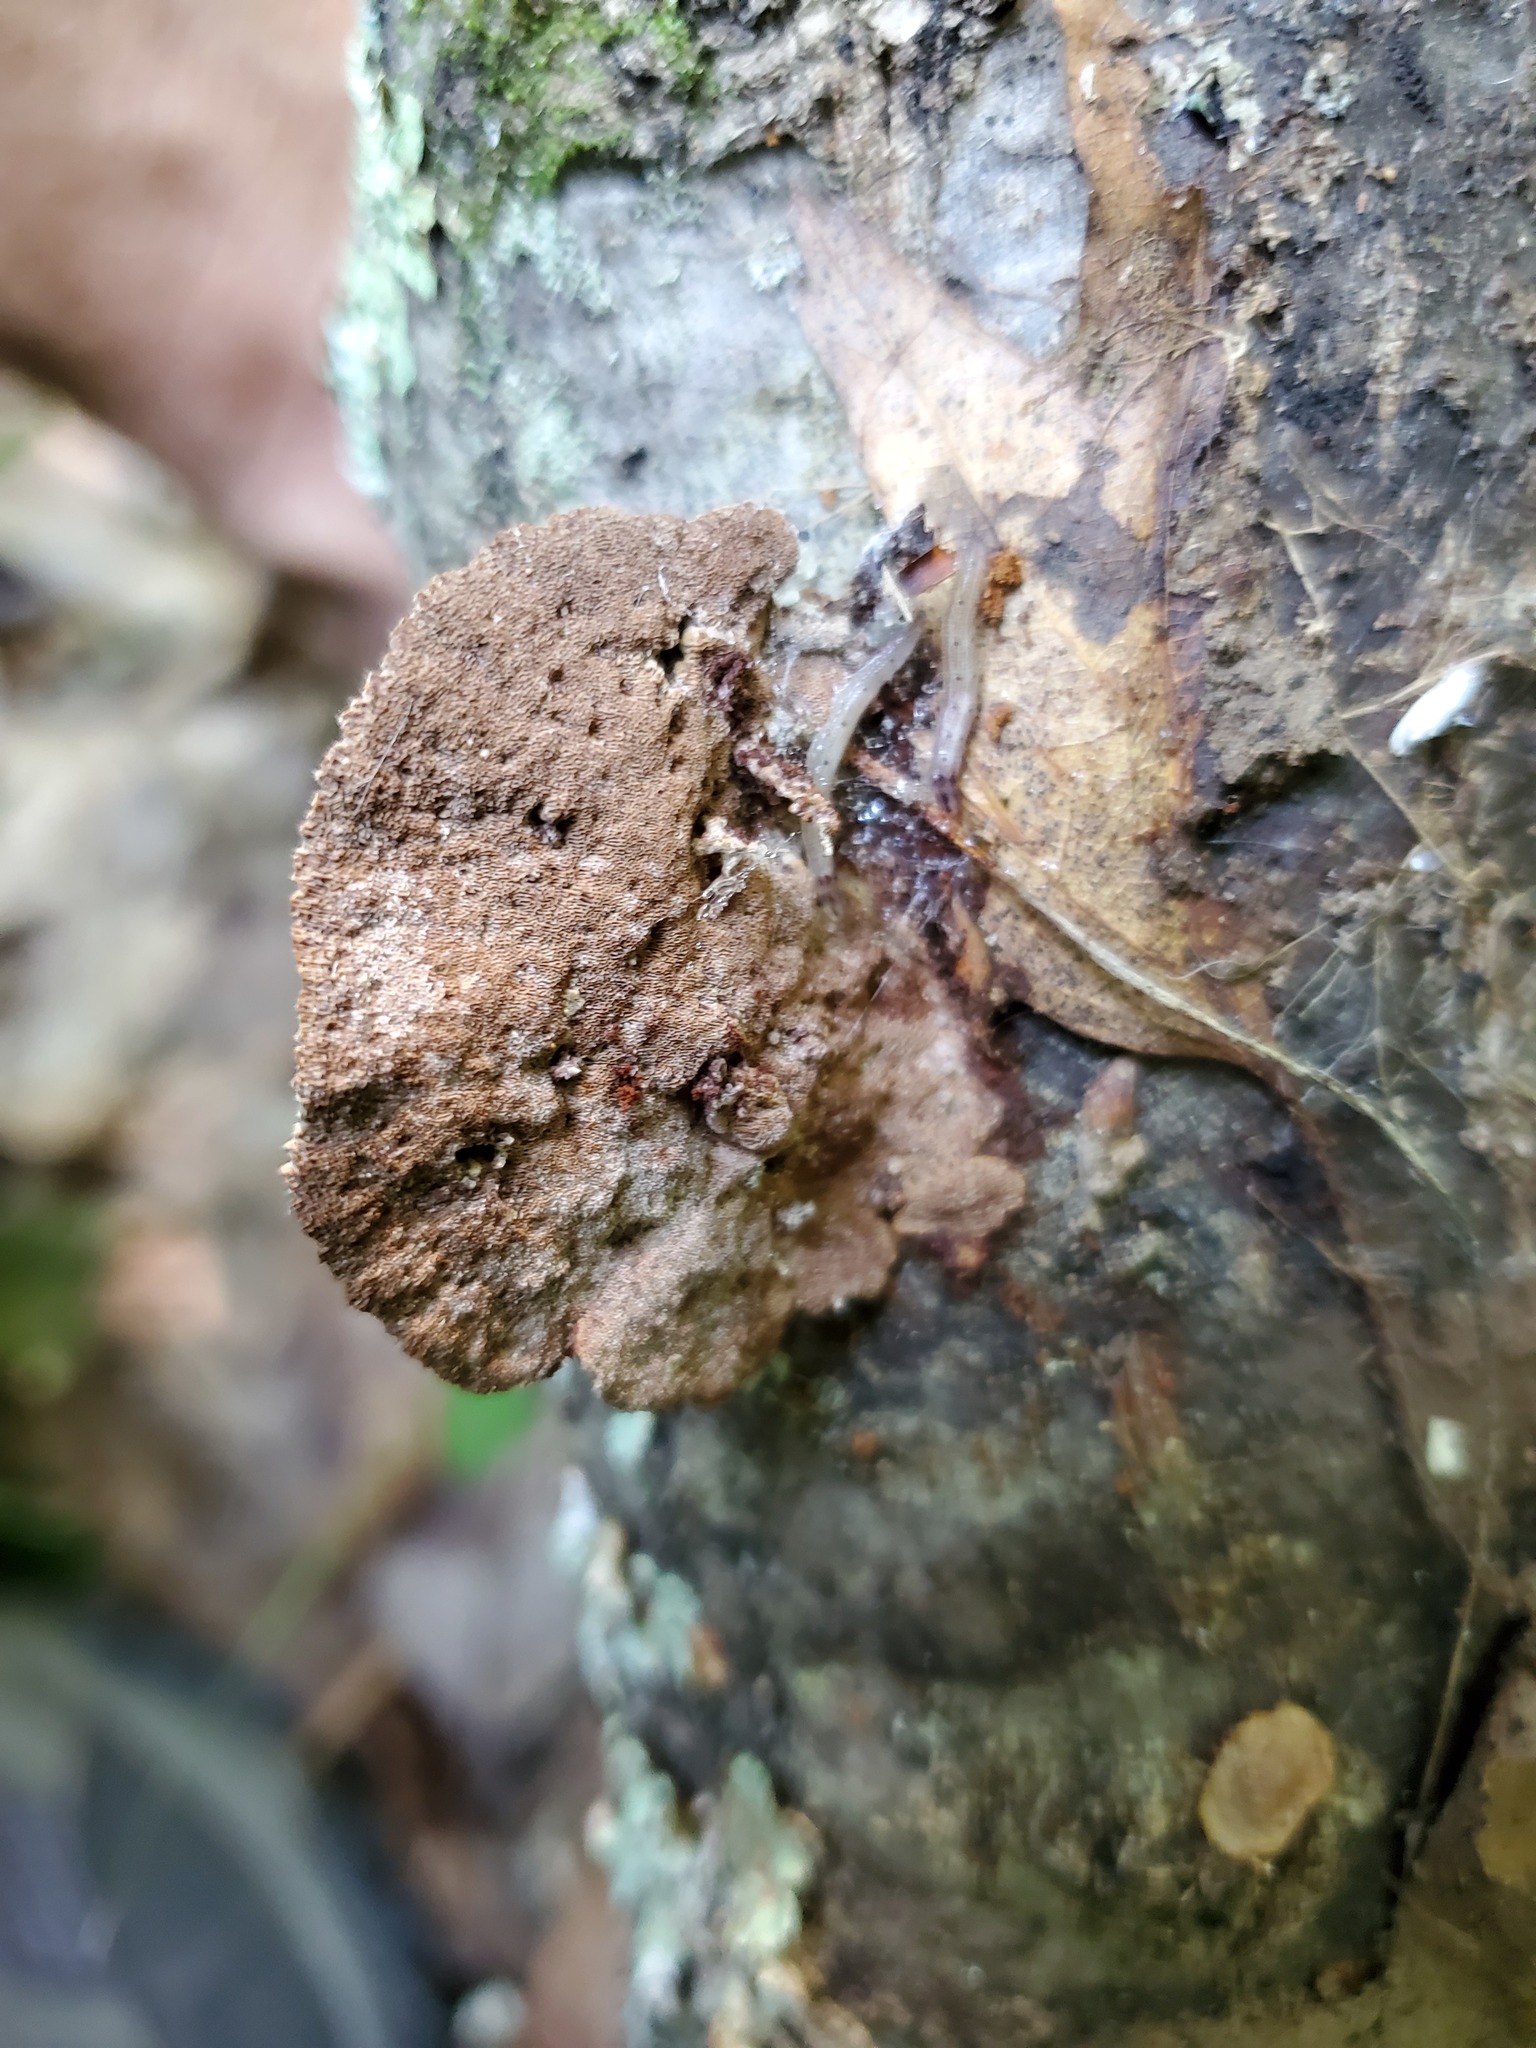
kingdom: Fungi
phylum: Basidiomycota
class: Agaricomycetes
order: Hymenochaetales
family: Hymenochaetaceae
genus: Phellinus
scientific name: Phellinus gilvus
